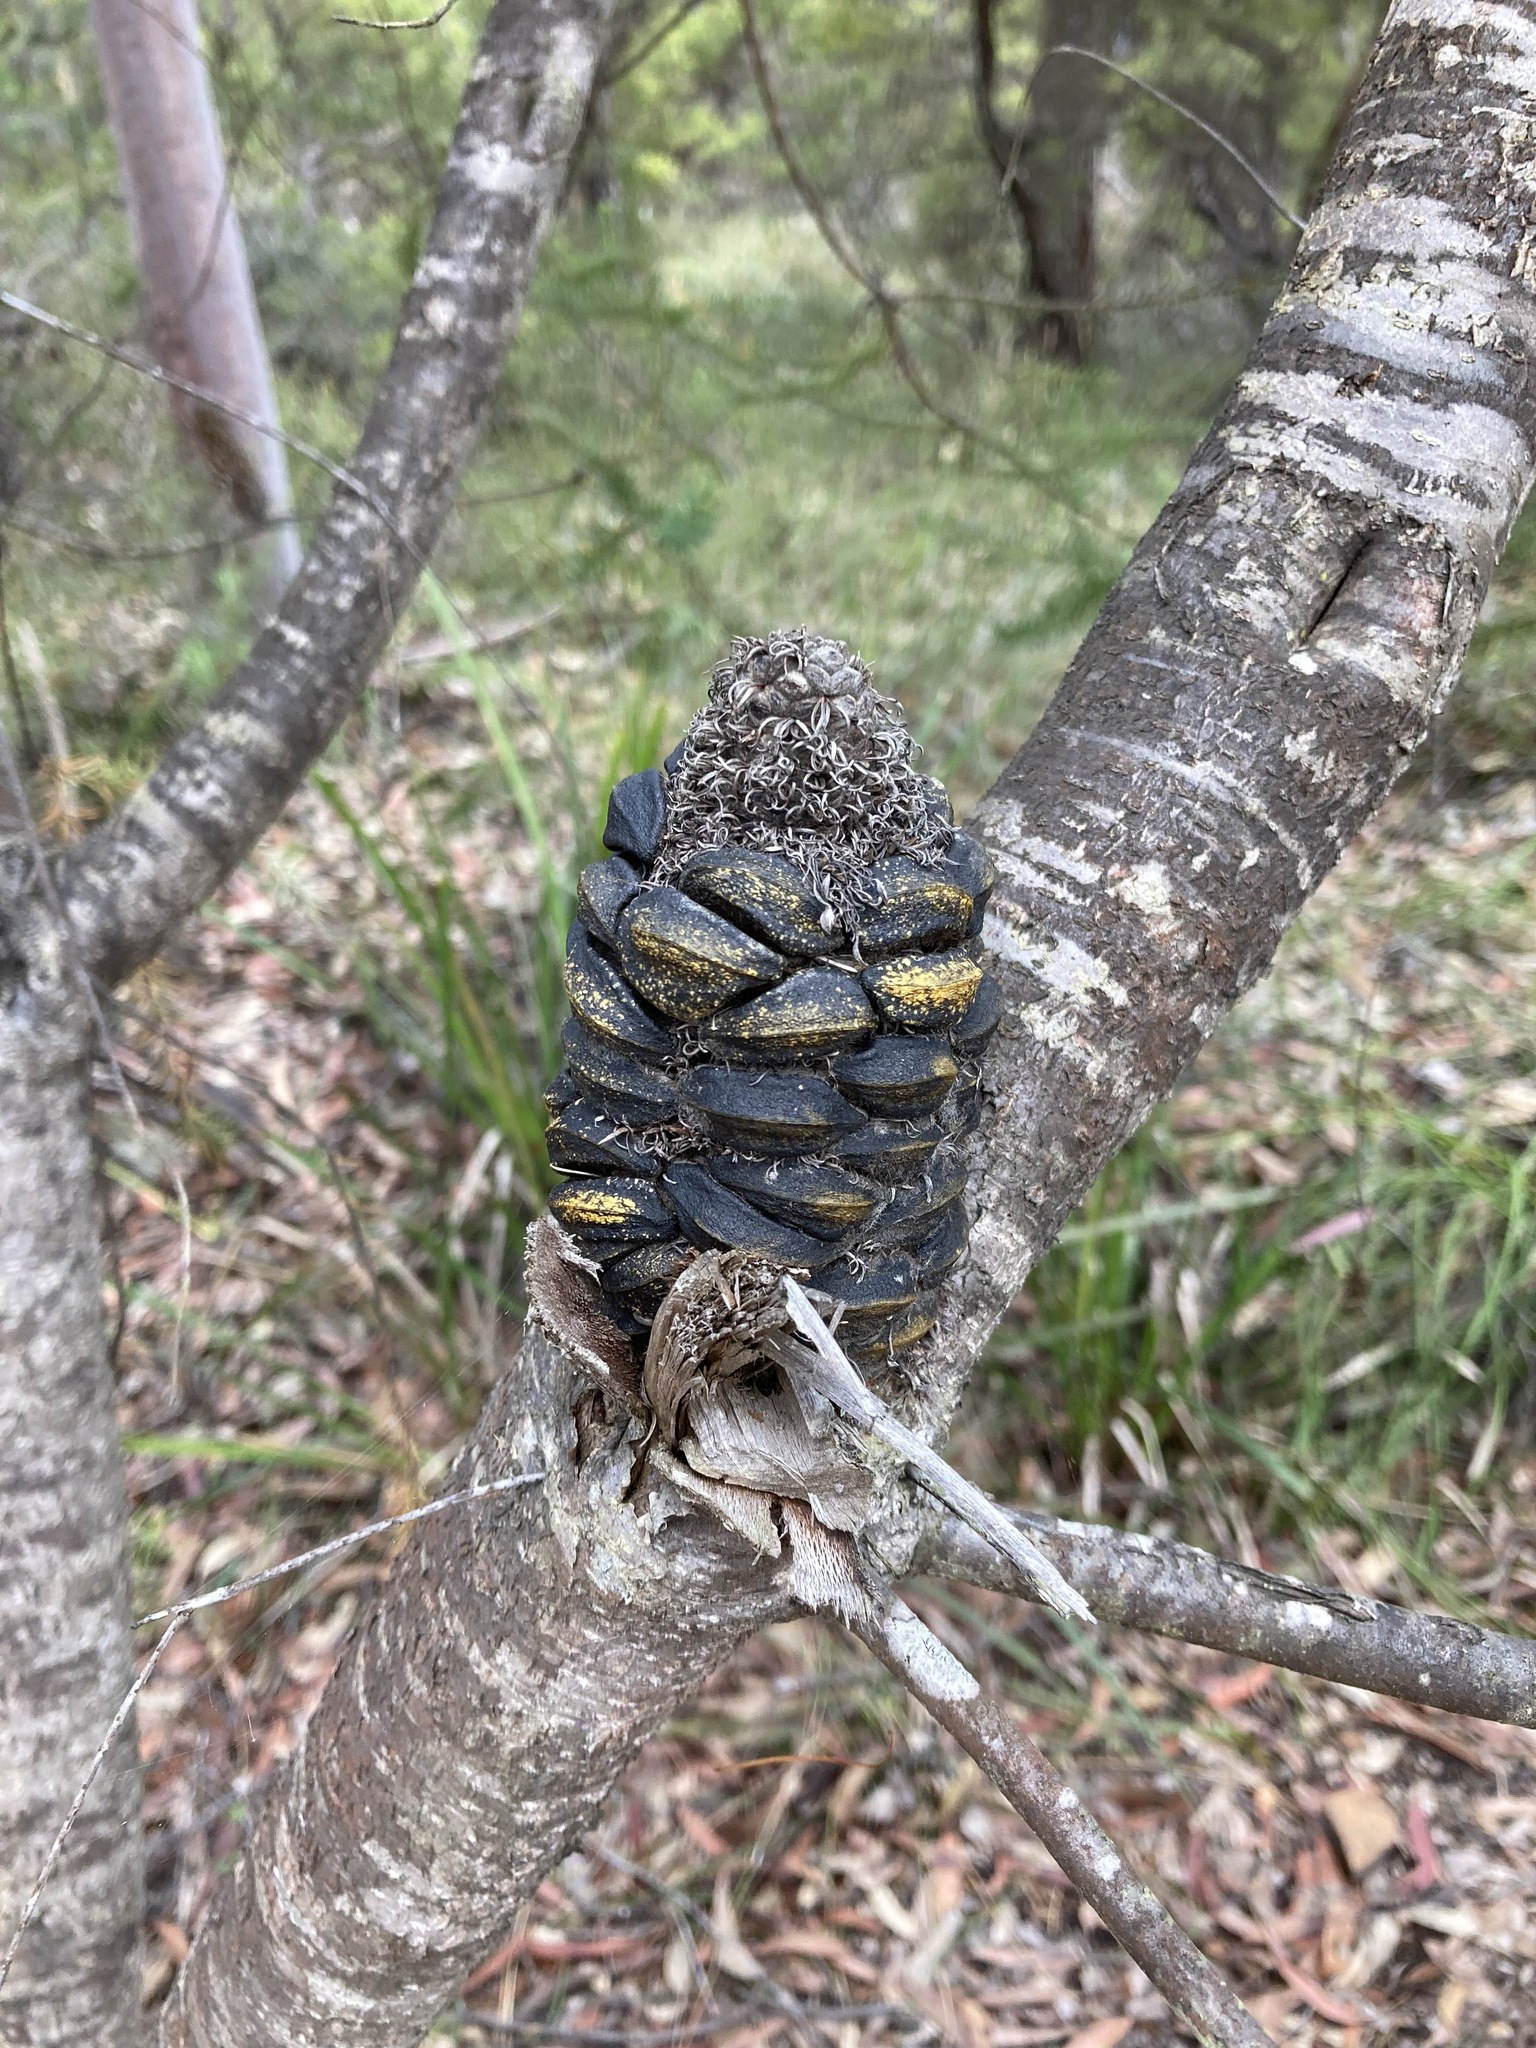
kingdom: Plantae
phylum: Tracheophyta
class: Magnoliopsida
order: Proteales
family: Proteaceae
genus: Banksia
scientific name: Banksia ericifolia
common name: Heath-leaf banksia
